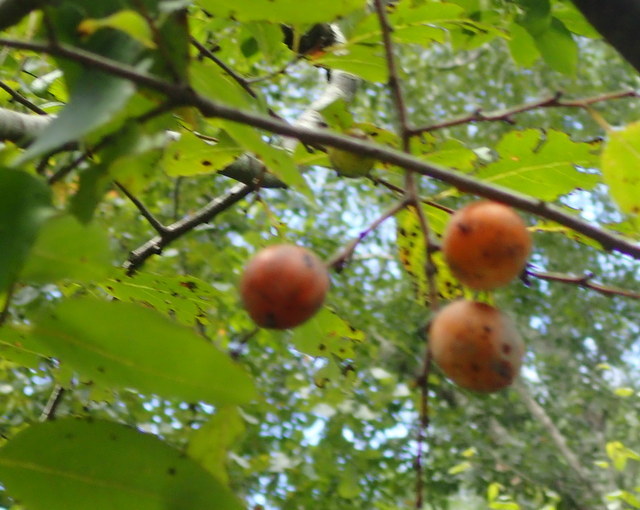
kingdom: Plantae
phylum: Tracheophyta
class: Magnoliopsida
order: Ericales
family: Ebenaceae
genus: Diospyros
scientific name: Diospyros virginiana
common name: Persimmon
